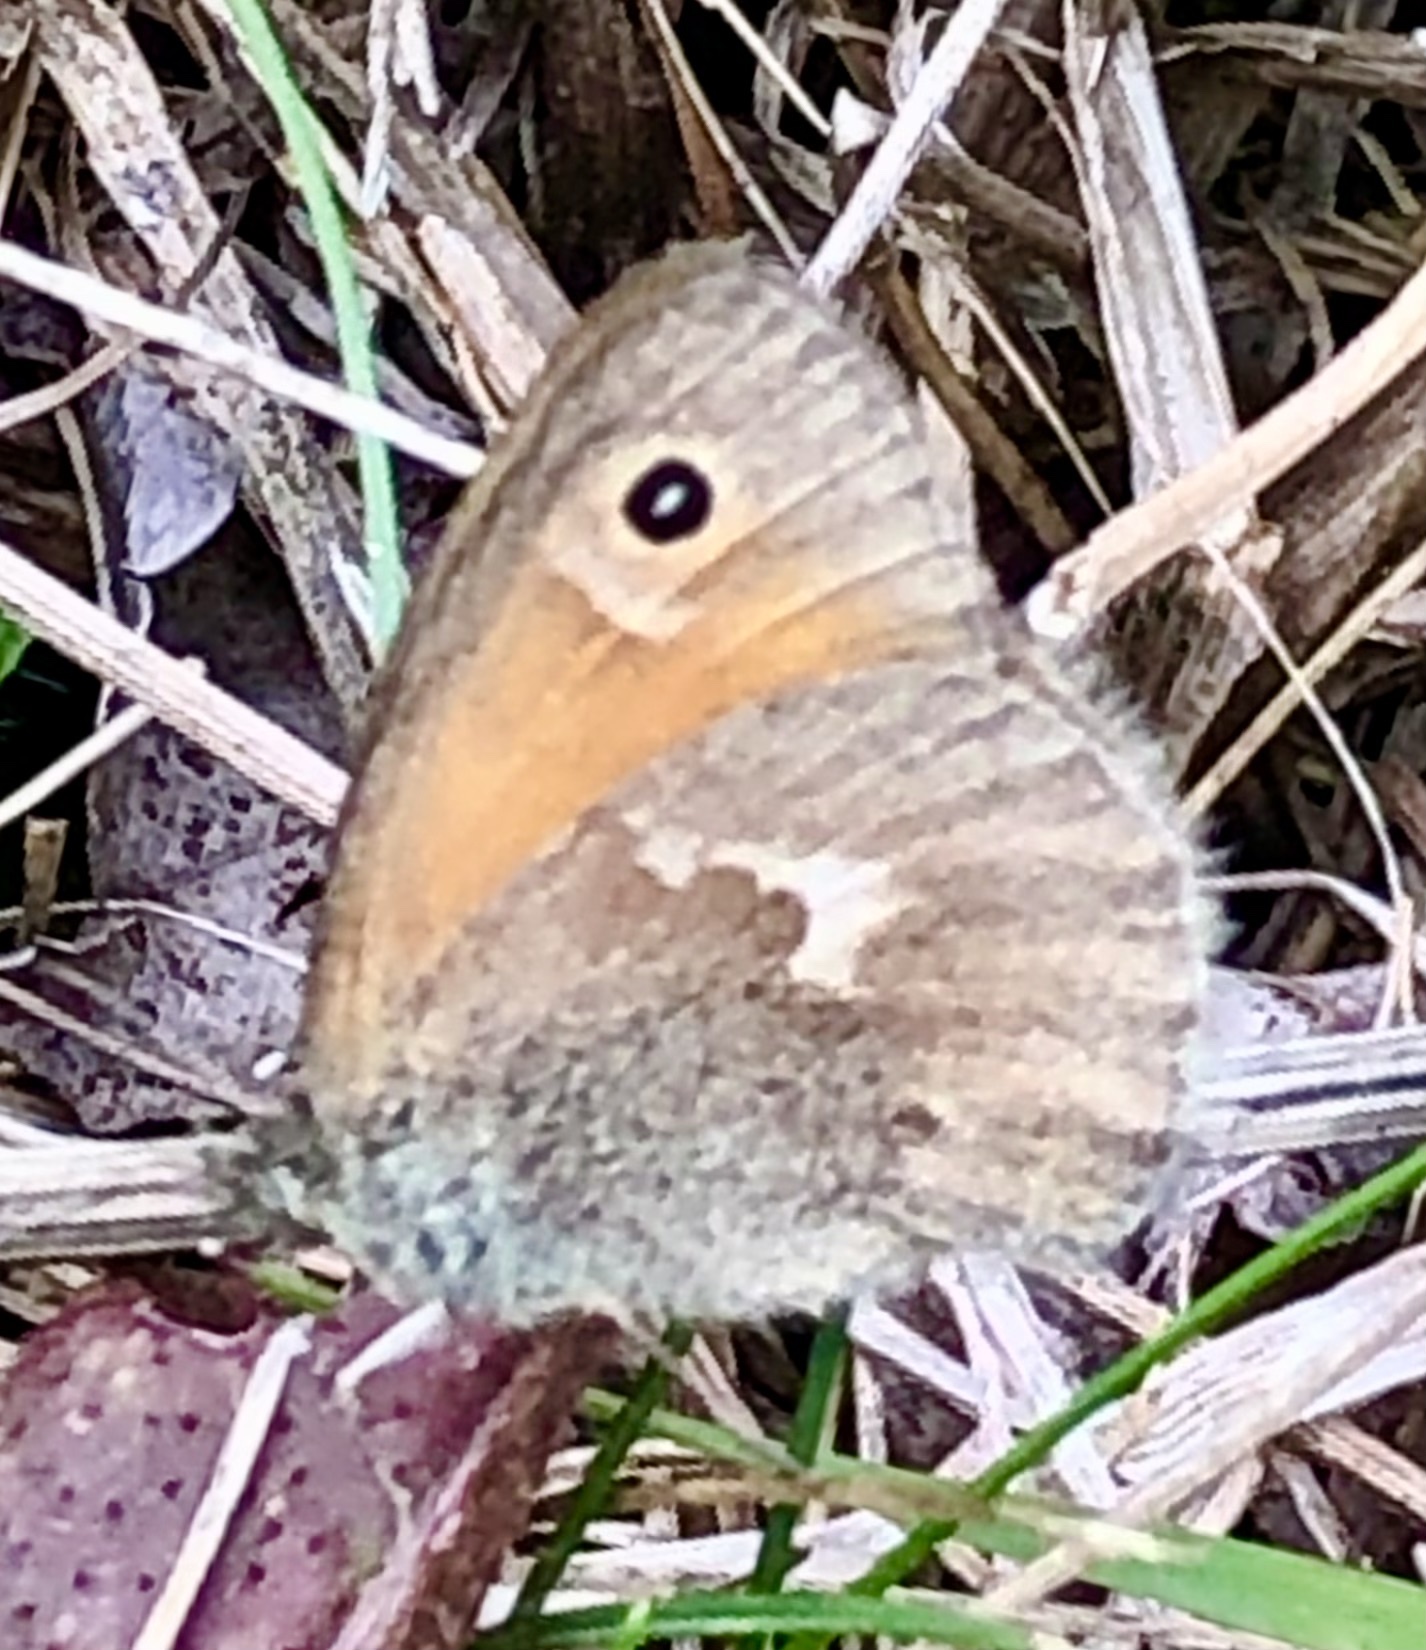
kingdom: Animalia
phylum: Arthropoda
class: Insecta
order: Lepidoptera
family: Nymphalidae
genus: Coenonympha
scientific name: Coenonympha california
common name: Common ringlet
